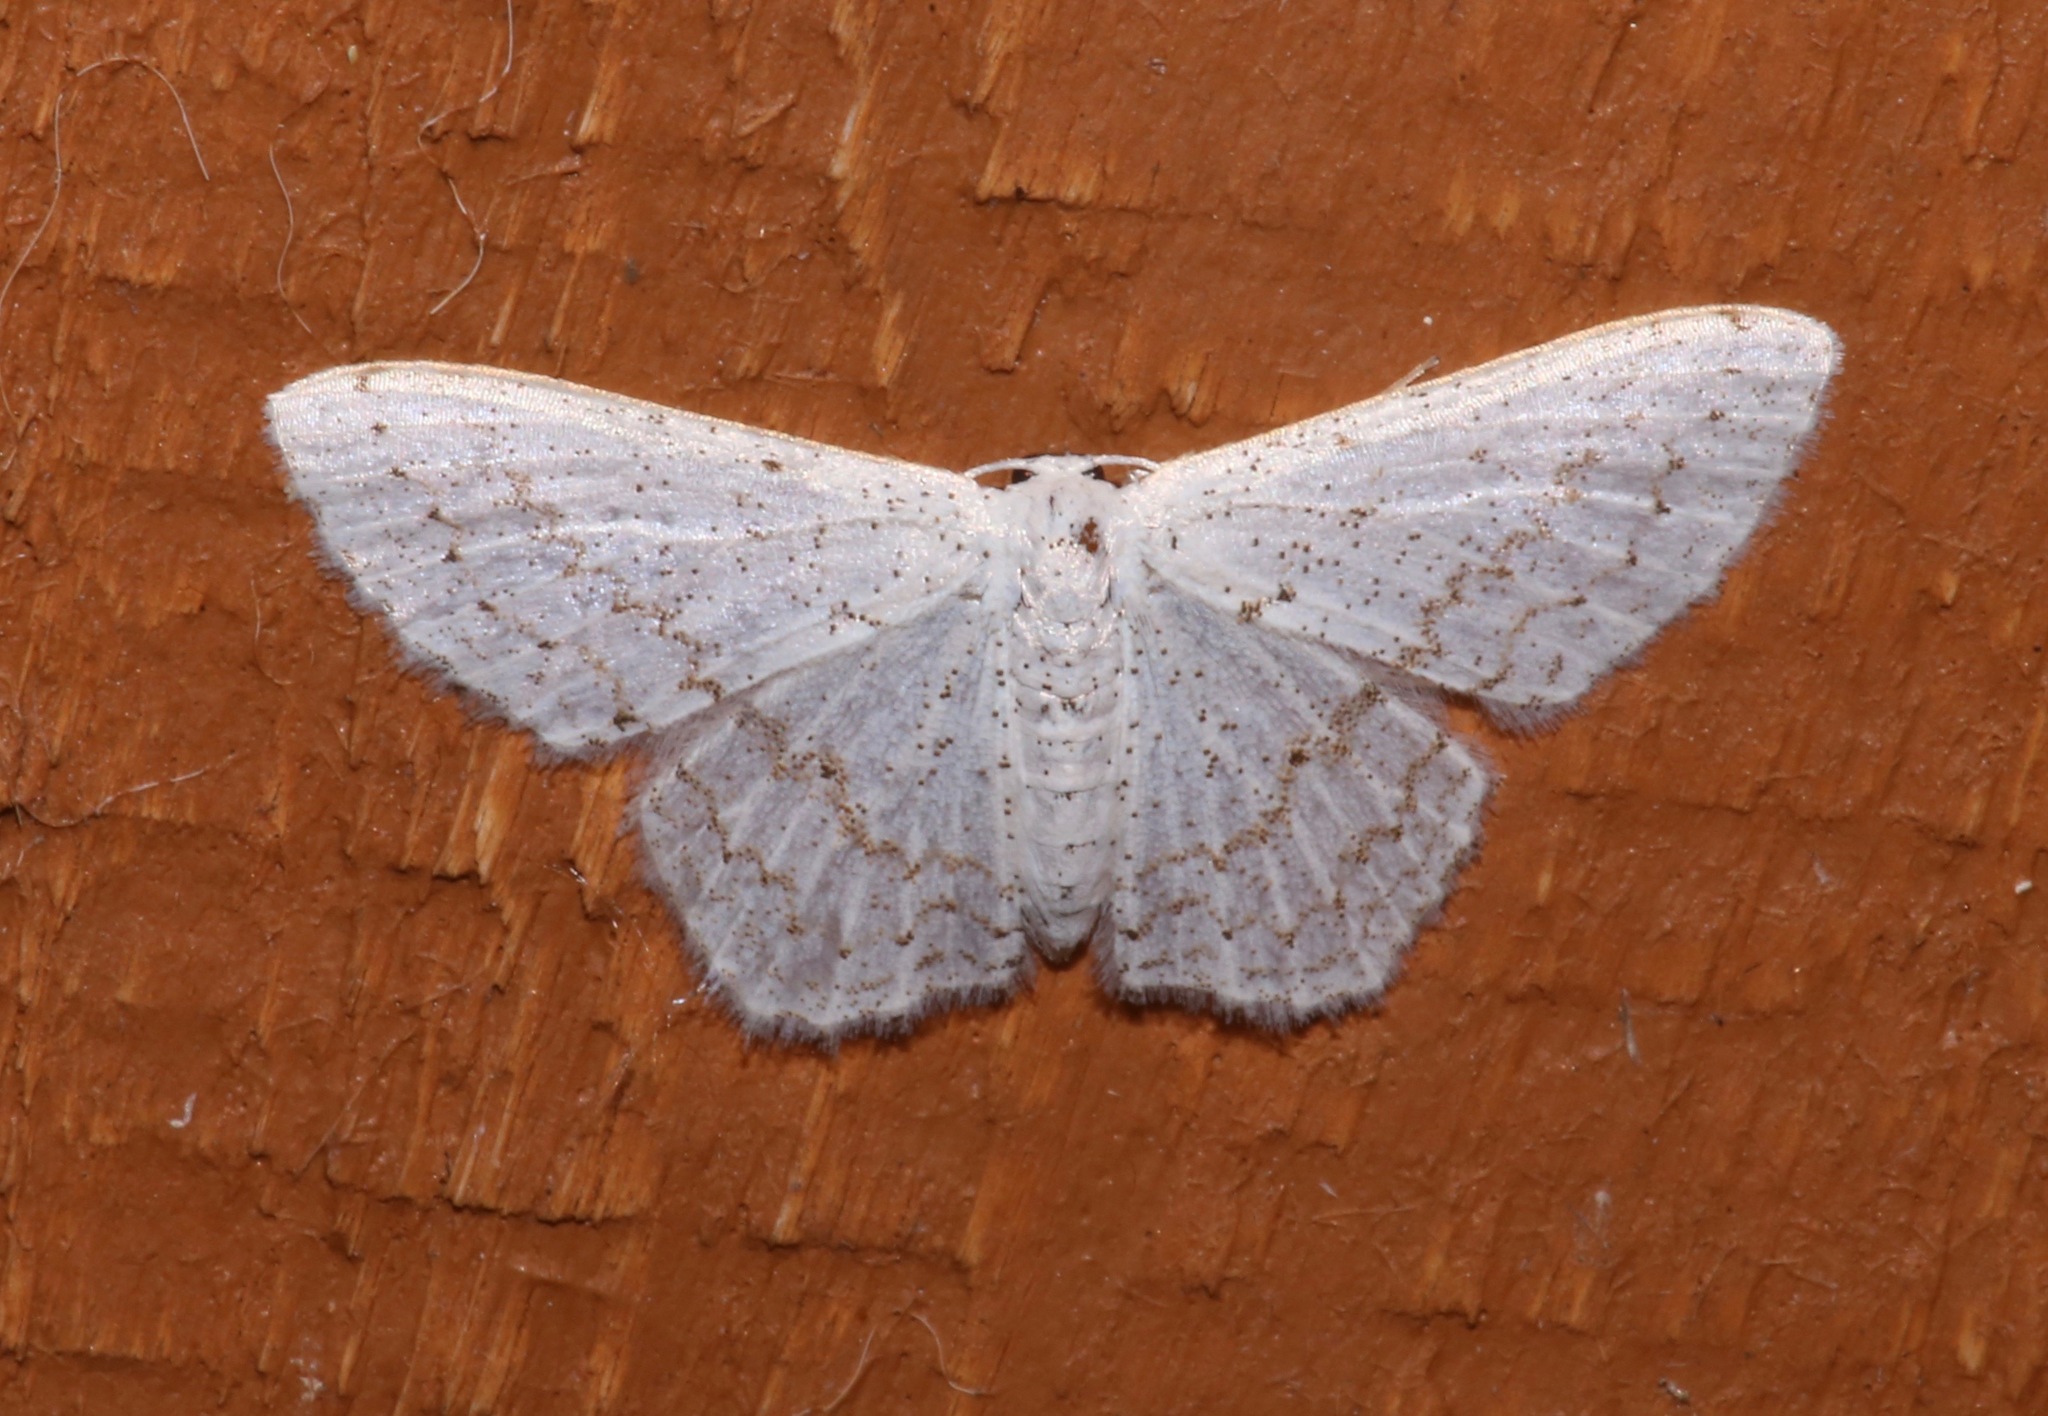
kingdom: Animalia
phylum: Arthropoda
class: Insecta
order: Lepidoptera
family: Geometridae
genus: Idaea
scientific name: Idaea tacturata
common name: Dot-lined wave
